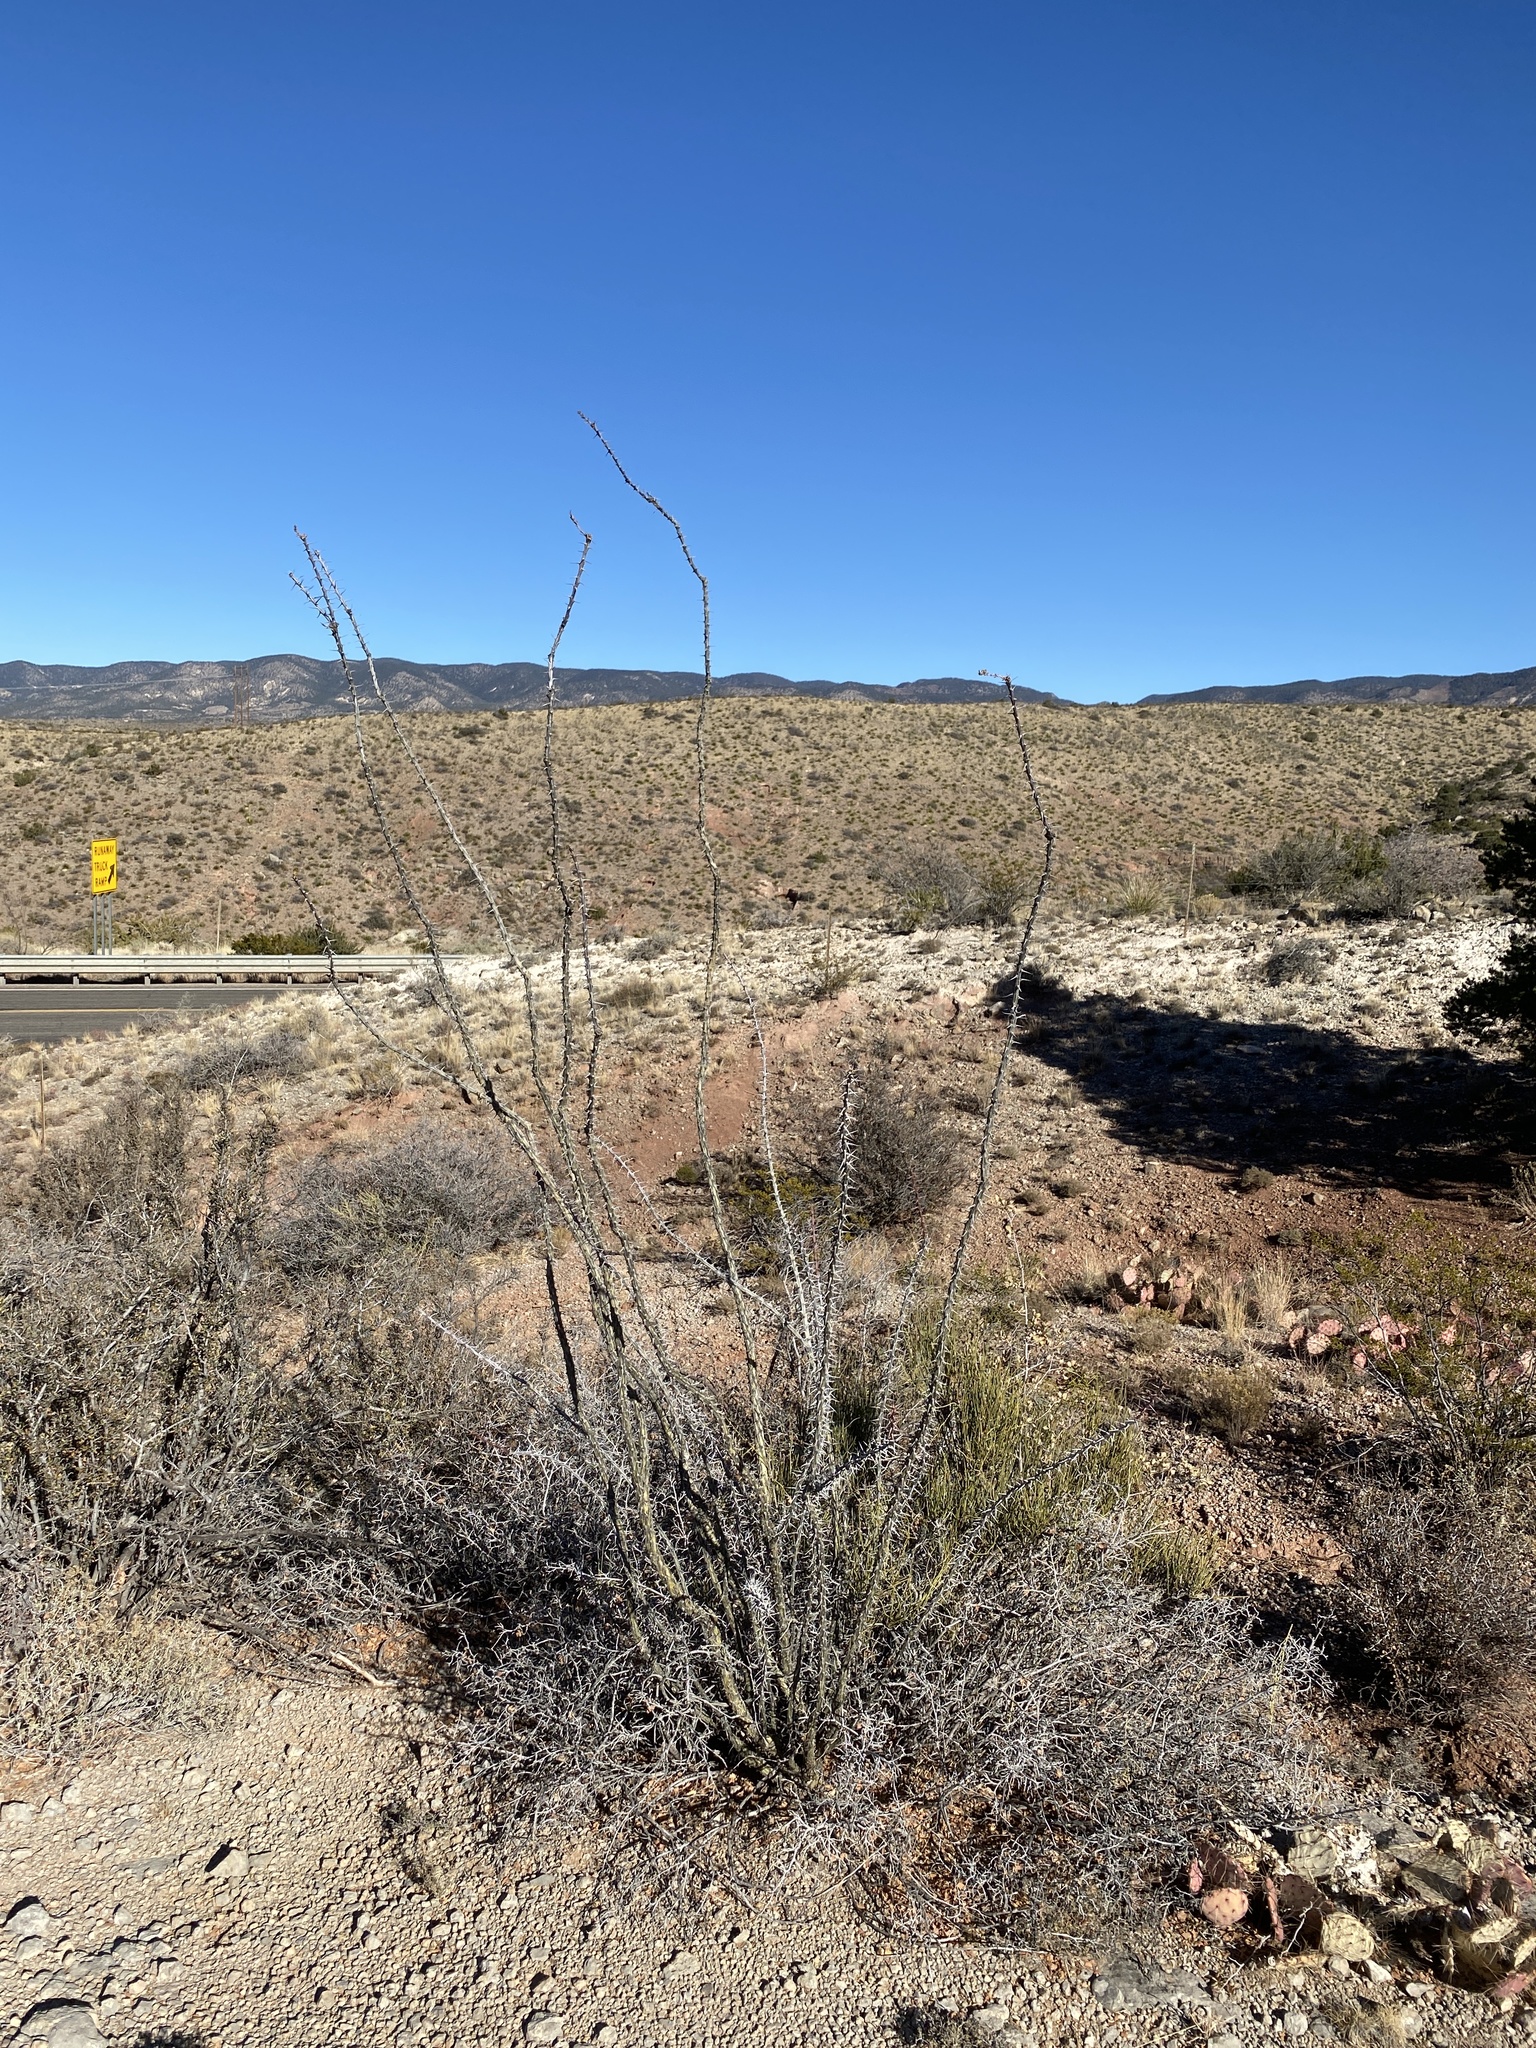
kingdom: Plantae
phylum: Tracheophyta
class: Magnoliopsida
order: Ericales
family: Fouquieriaceae
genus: Fouquieria
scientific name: Fouquieria splendens
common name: Vine-cactus
